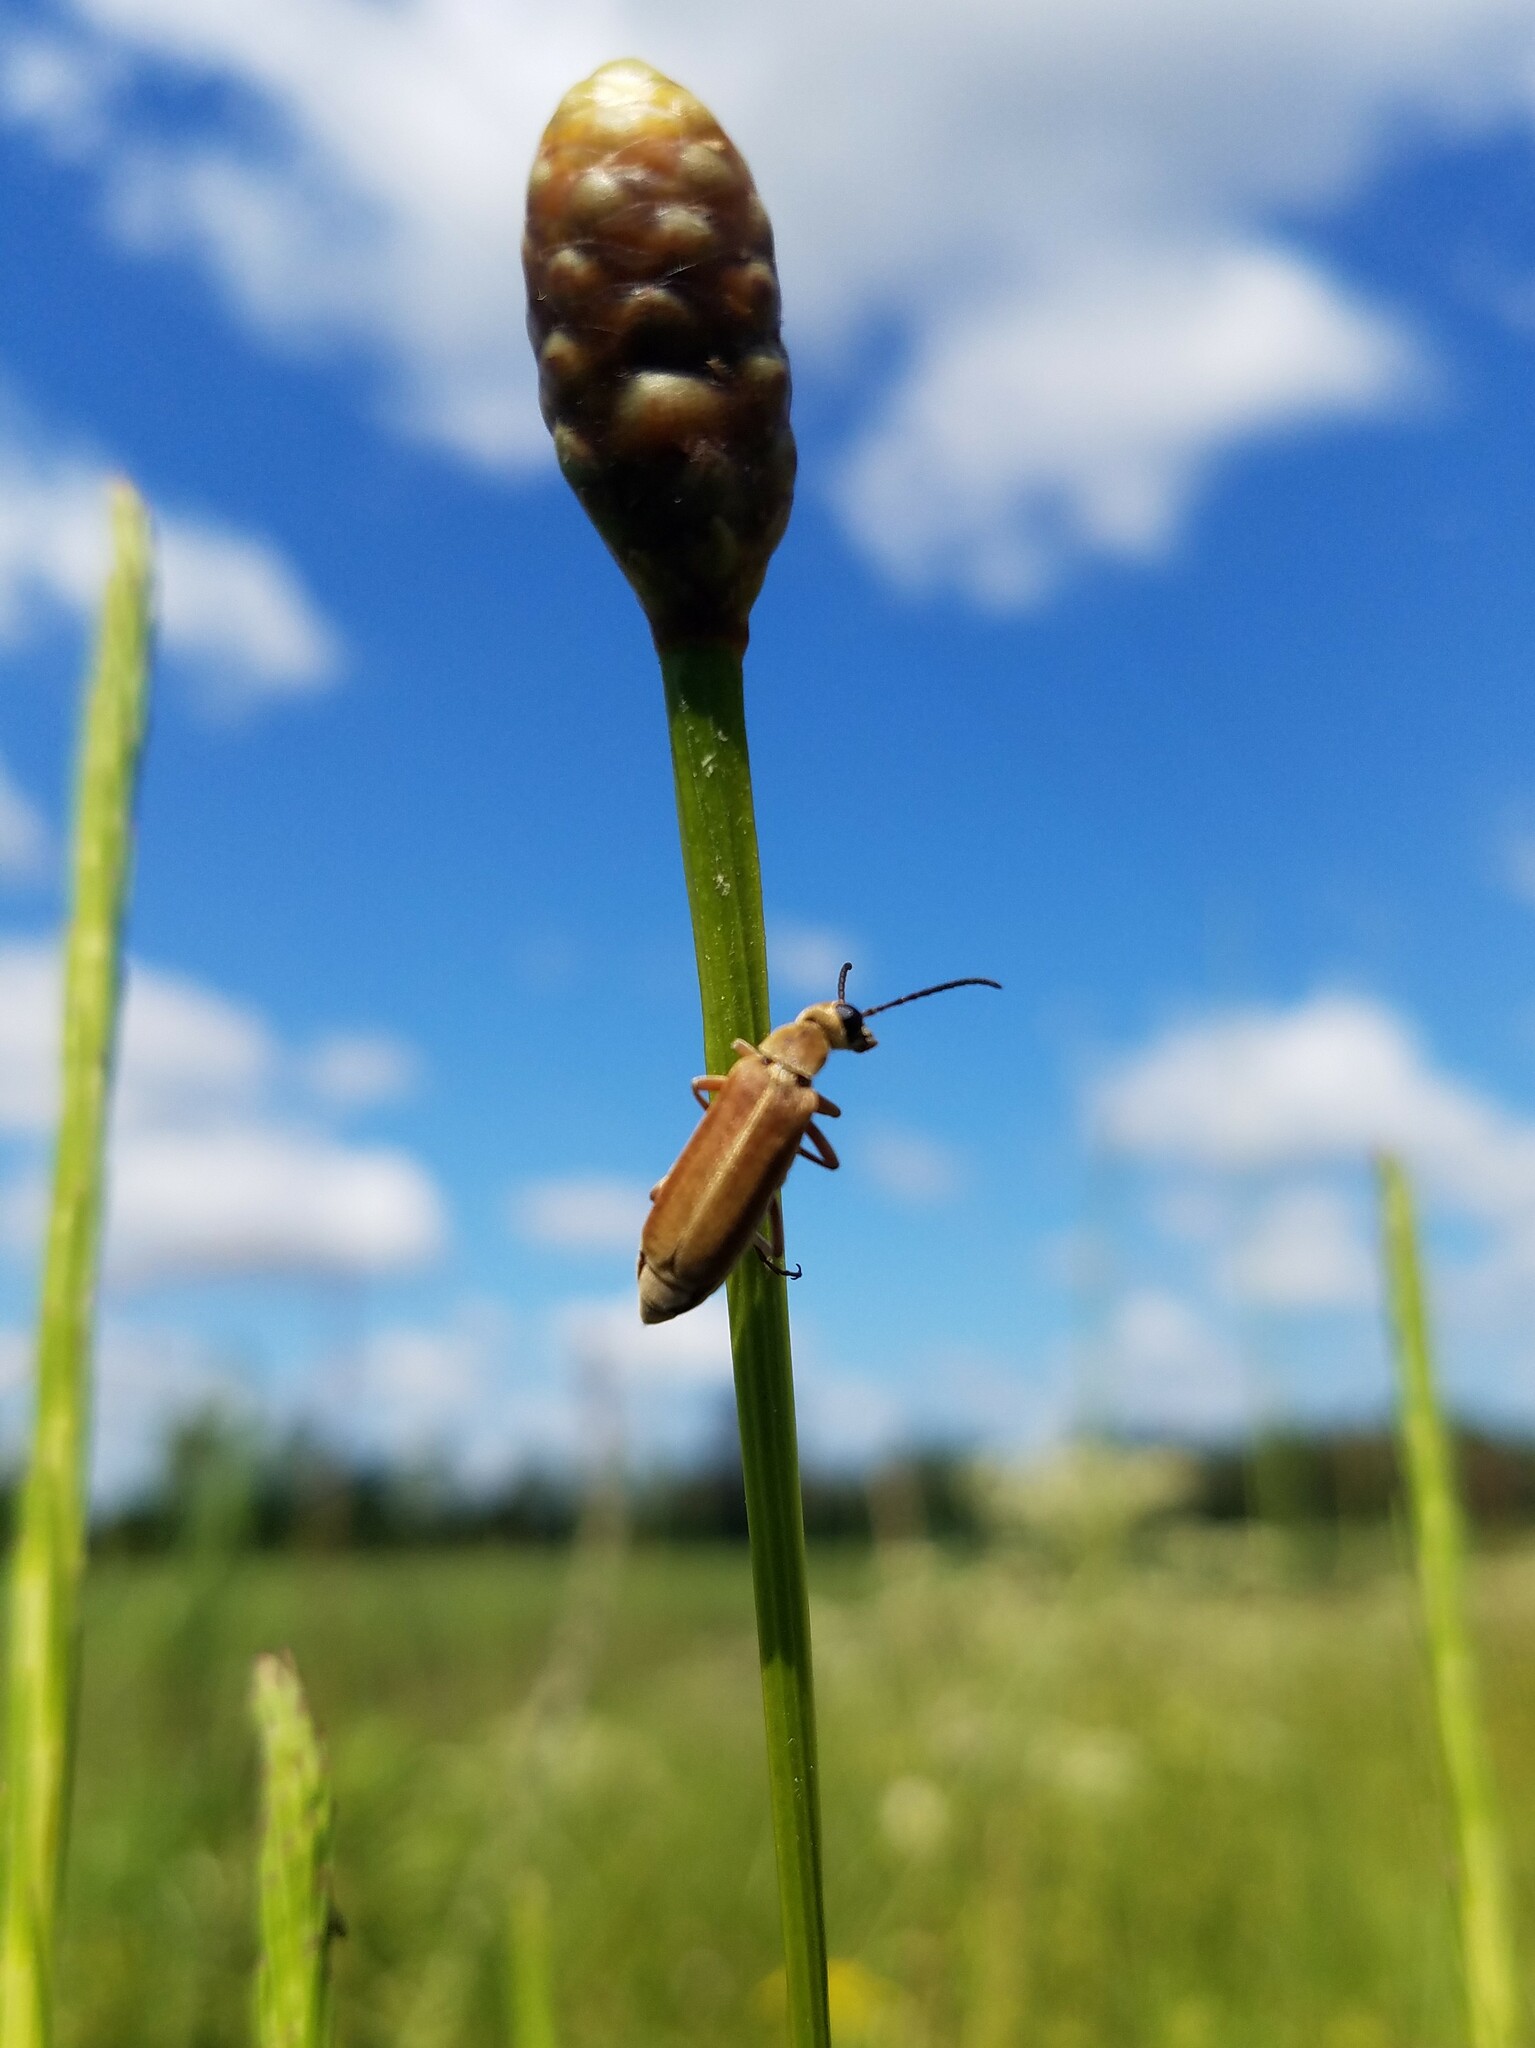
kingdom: Animalia
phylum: Arthropoda
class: Insecta
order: Coleoptera
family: Meloidae
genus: Epicauta
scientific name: Epicauta batesii
